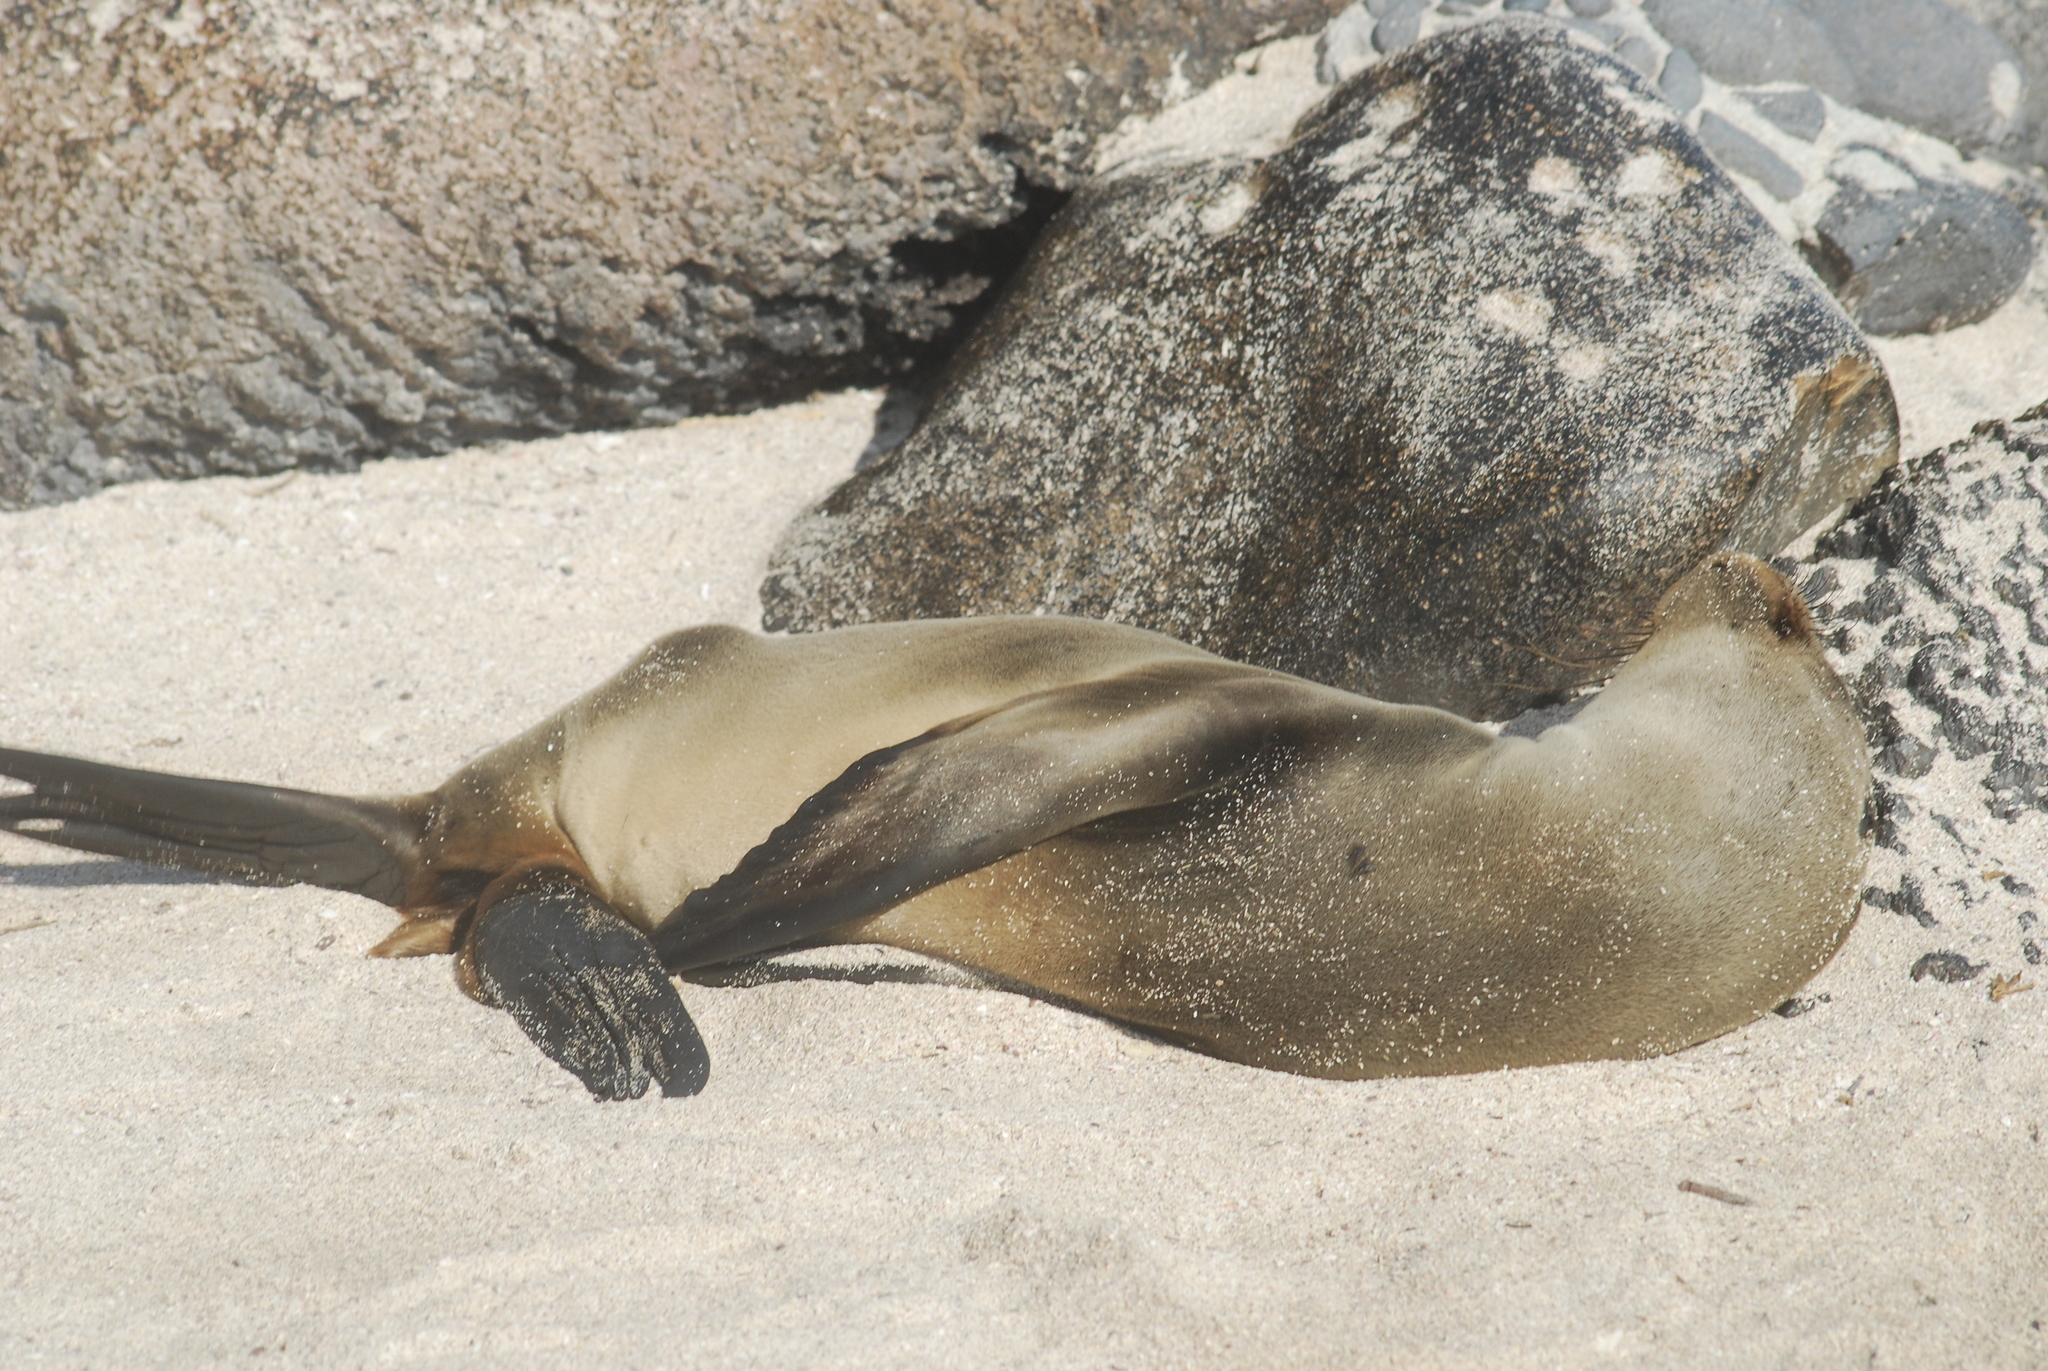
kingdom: Animalia
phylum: Chordata
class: Mammalia
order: Carnivora
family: Otariidae
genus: Zalophus
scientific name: Zalophus wollebaeki
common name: Galapagos sea lion
